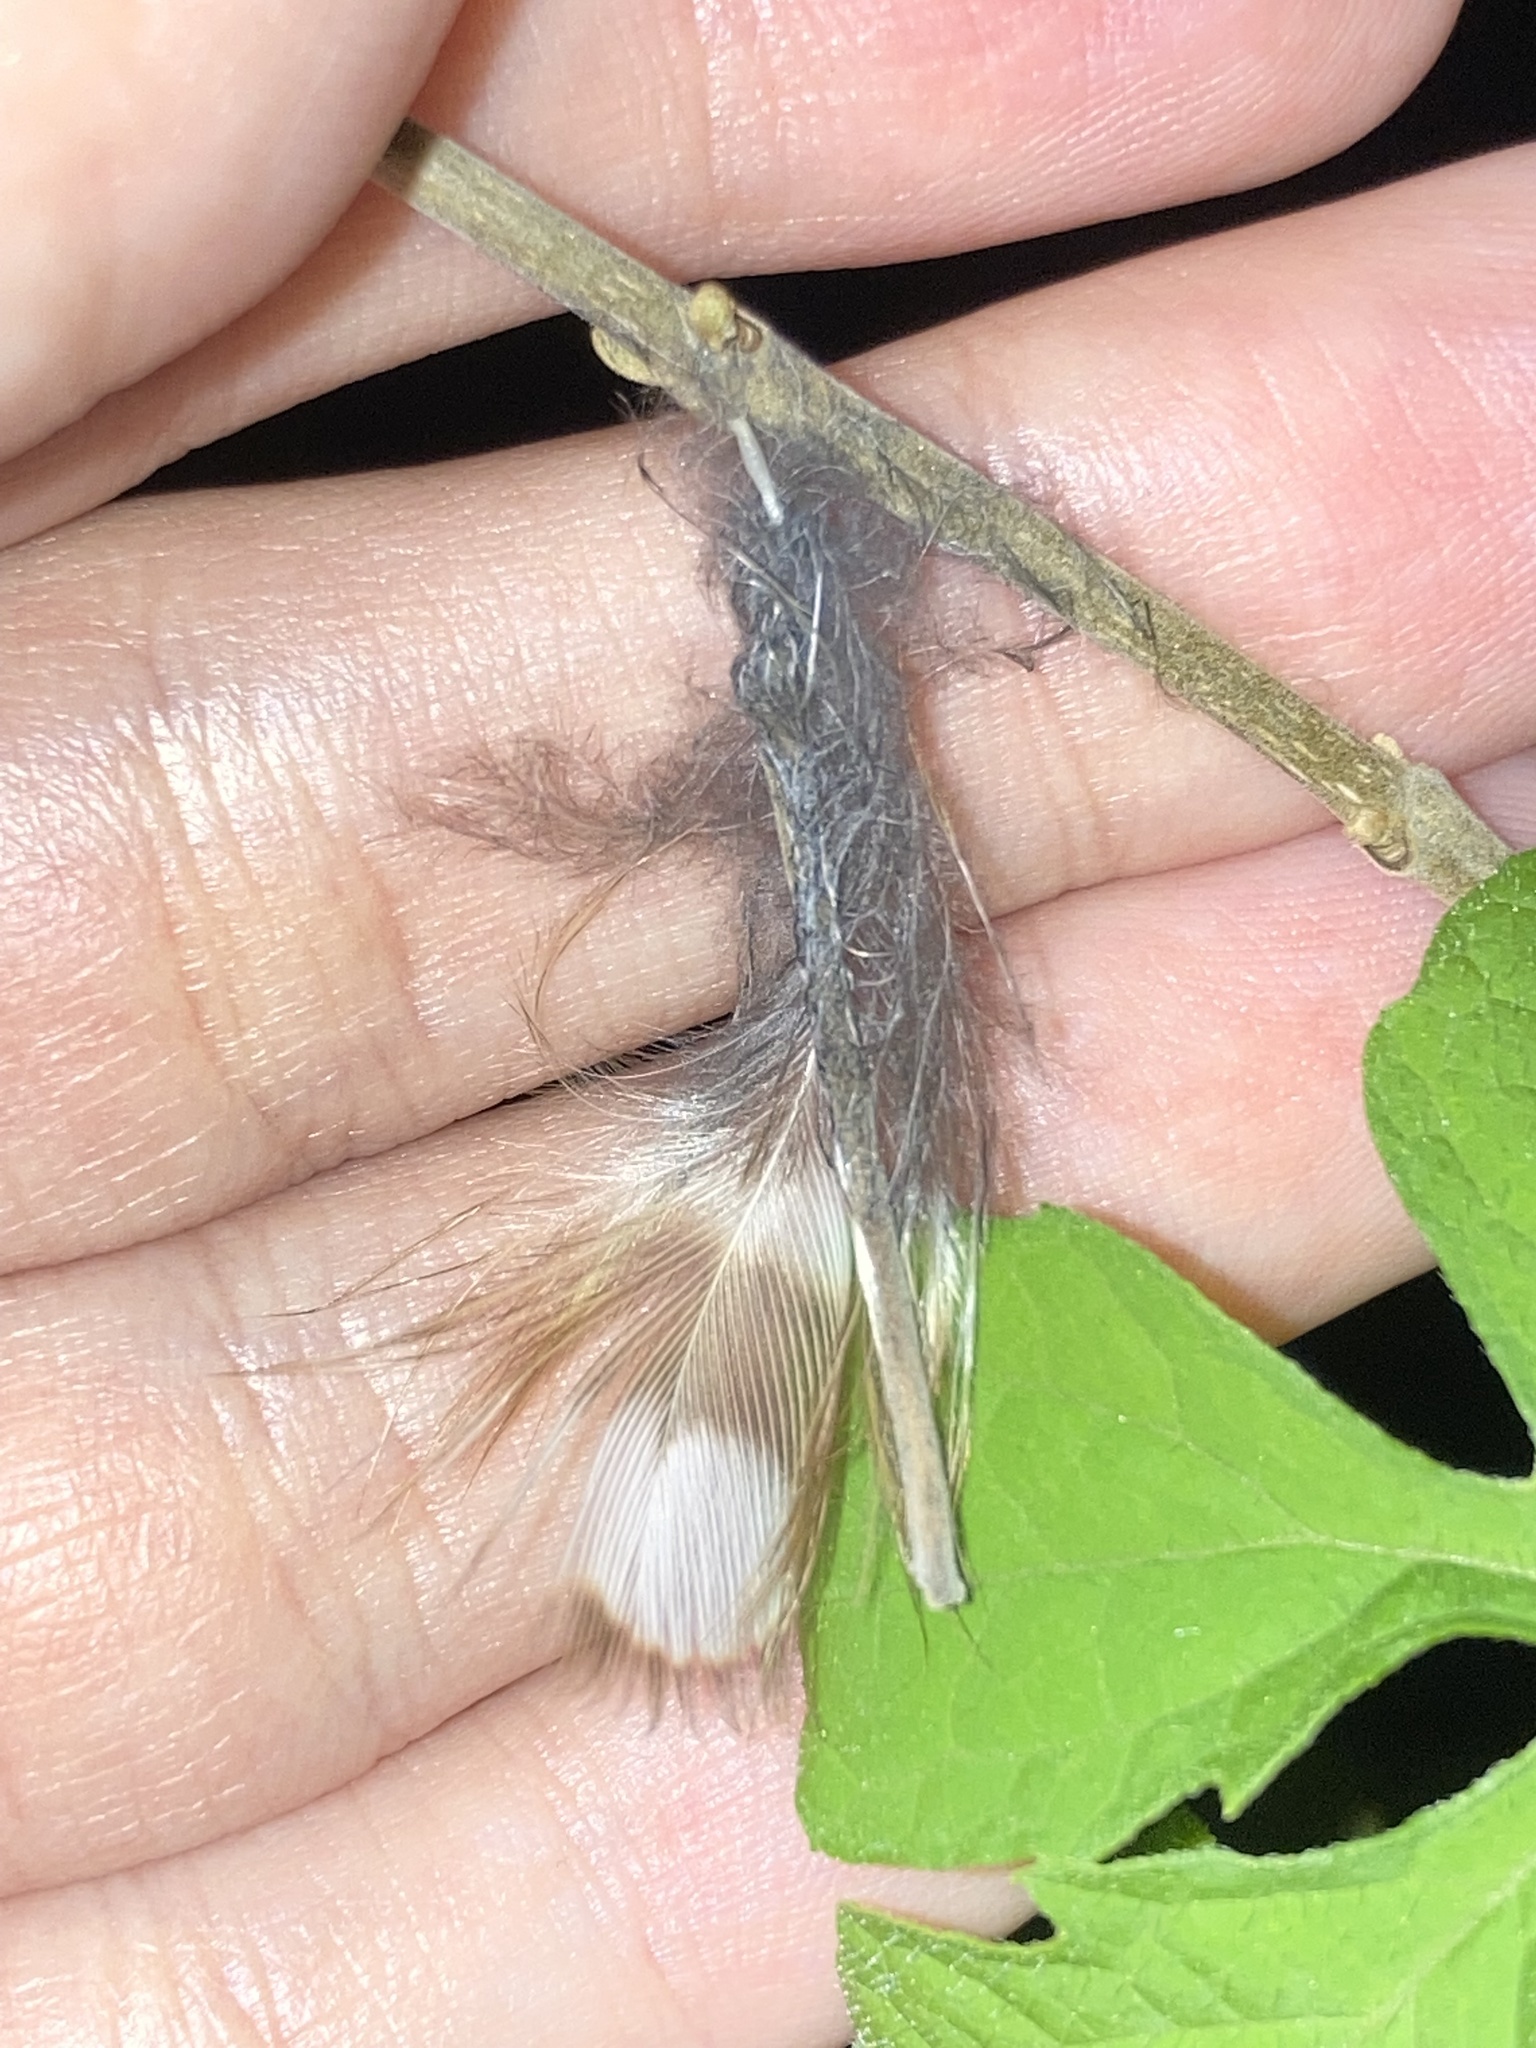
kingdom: Animalia
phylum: Chordata
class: Aves
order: Strigiformes
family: Strigidae
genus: Athene
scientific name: Athene cunicularia
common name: Burrowing owl
